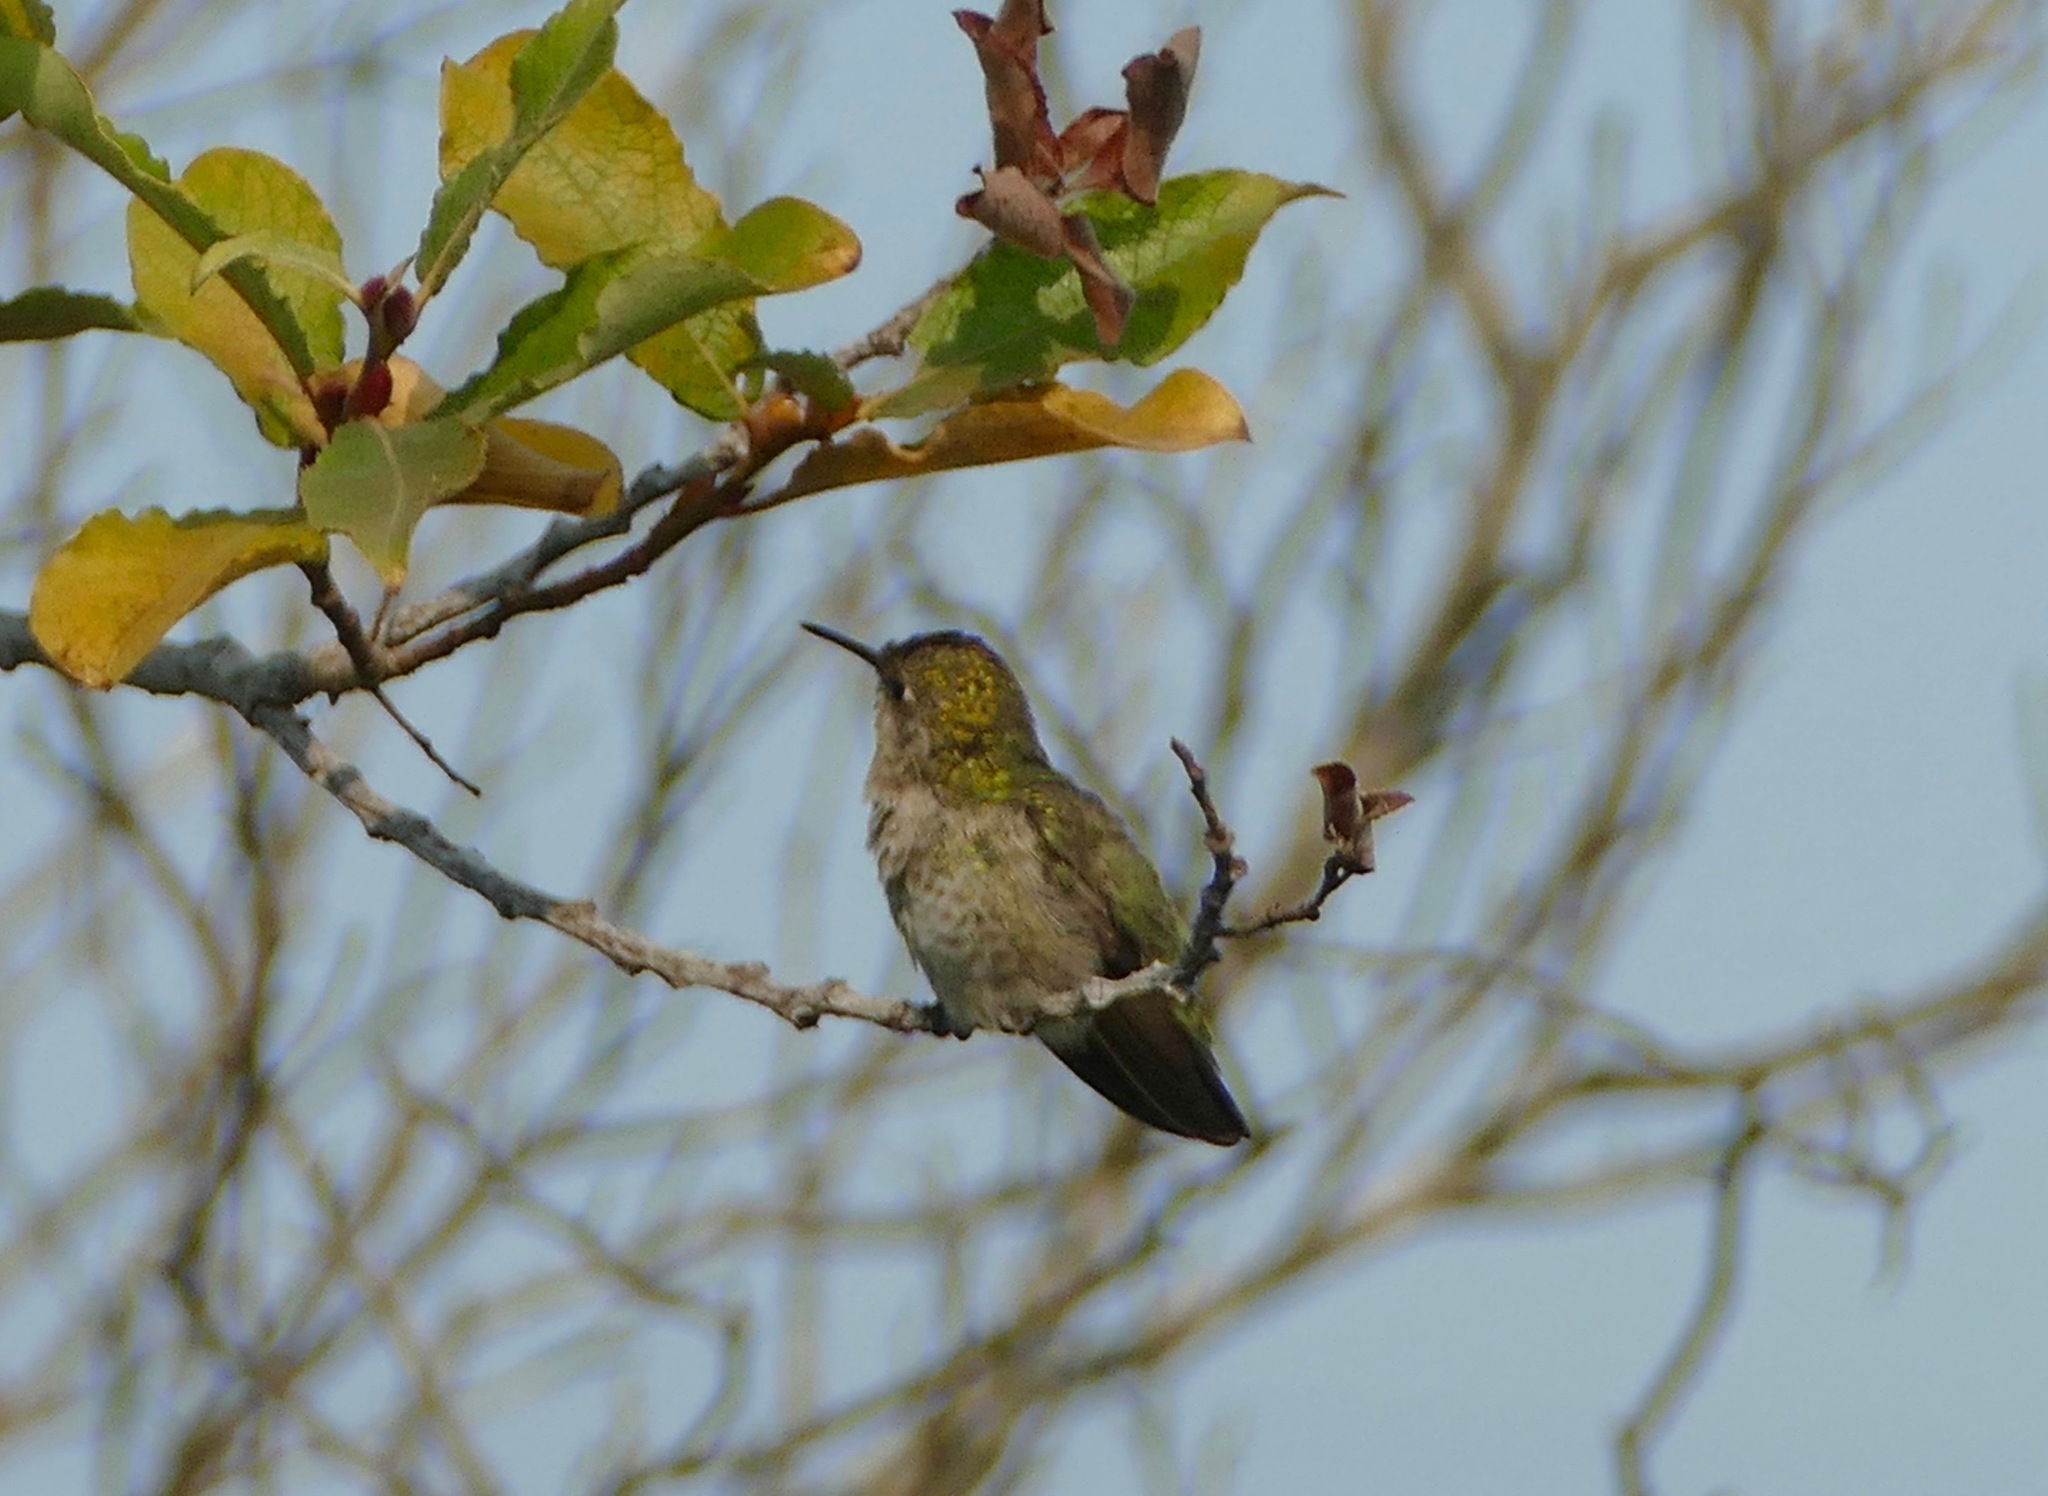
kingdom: Animalia
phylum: Chordata
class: Aves
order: Apodiformes
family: Trochilidae
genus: Calypte
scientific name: Calypte anna
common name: Anna's hummingbird
